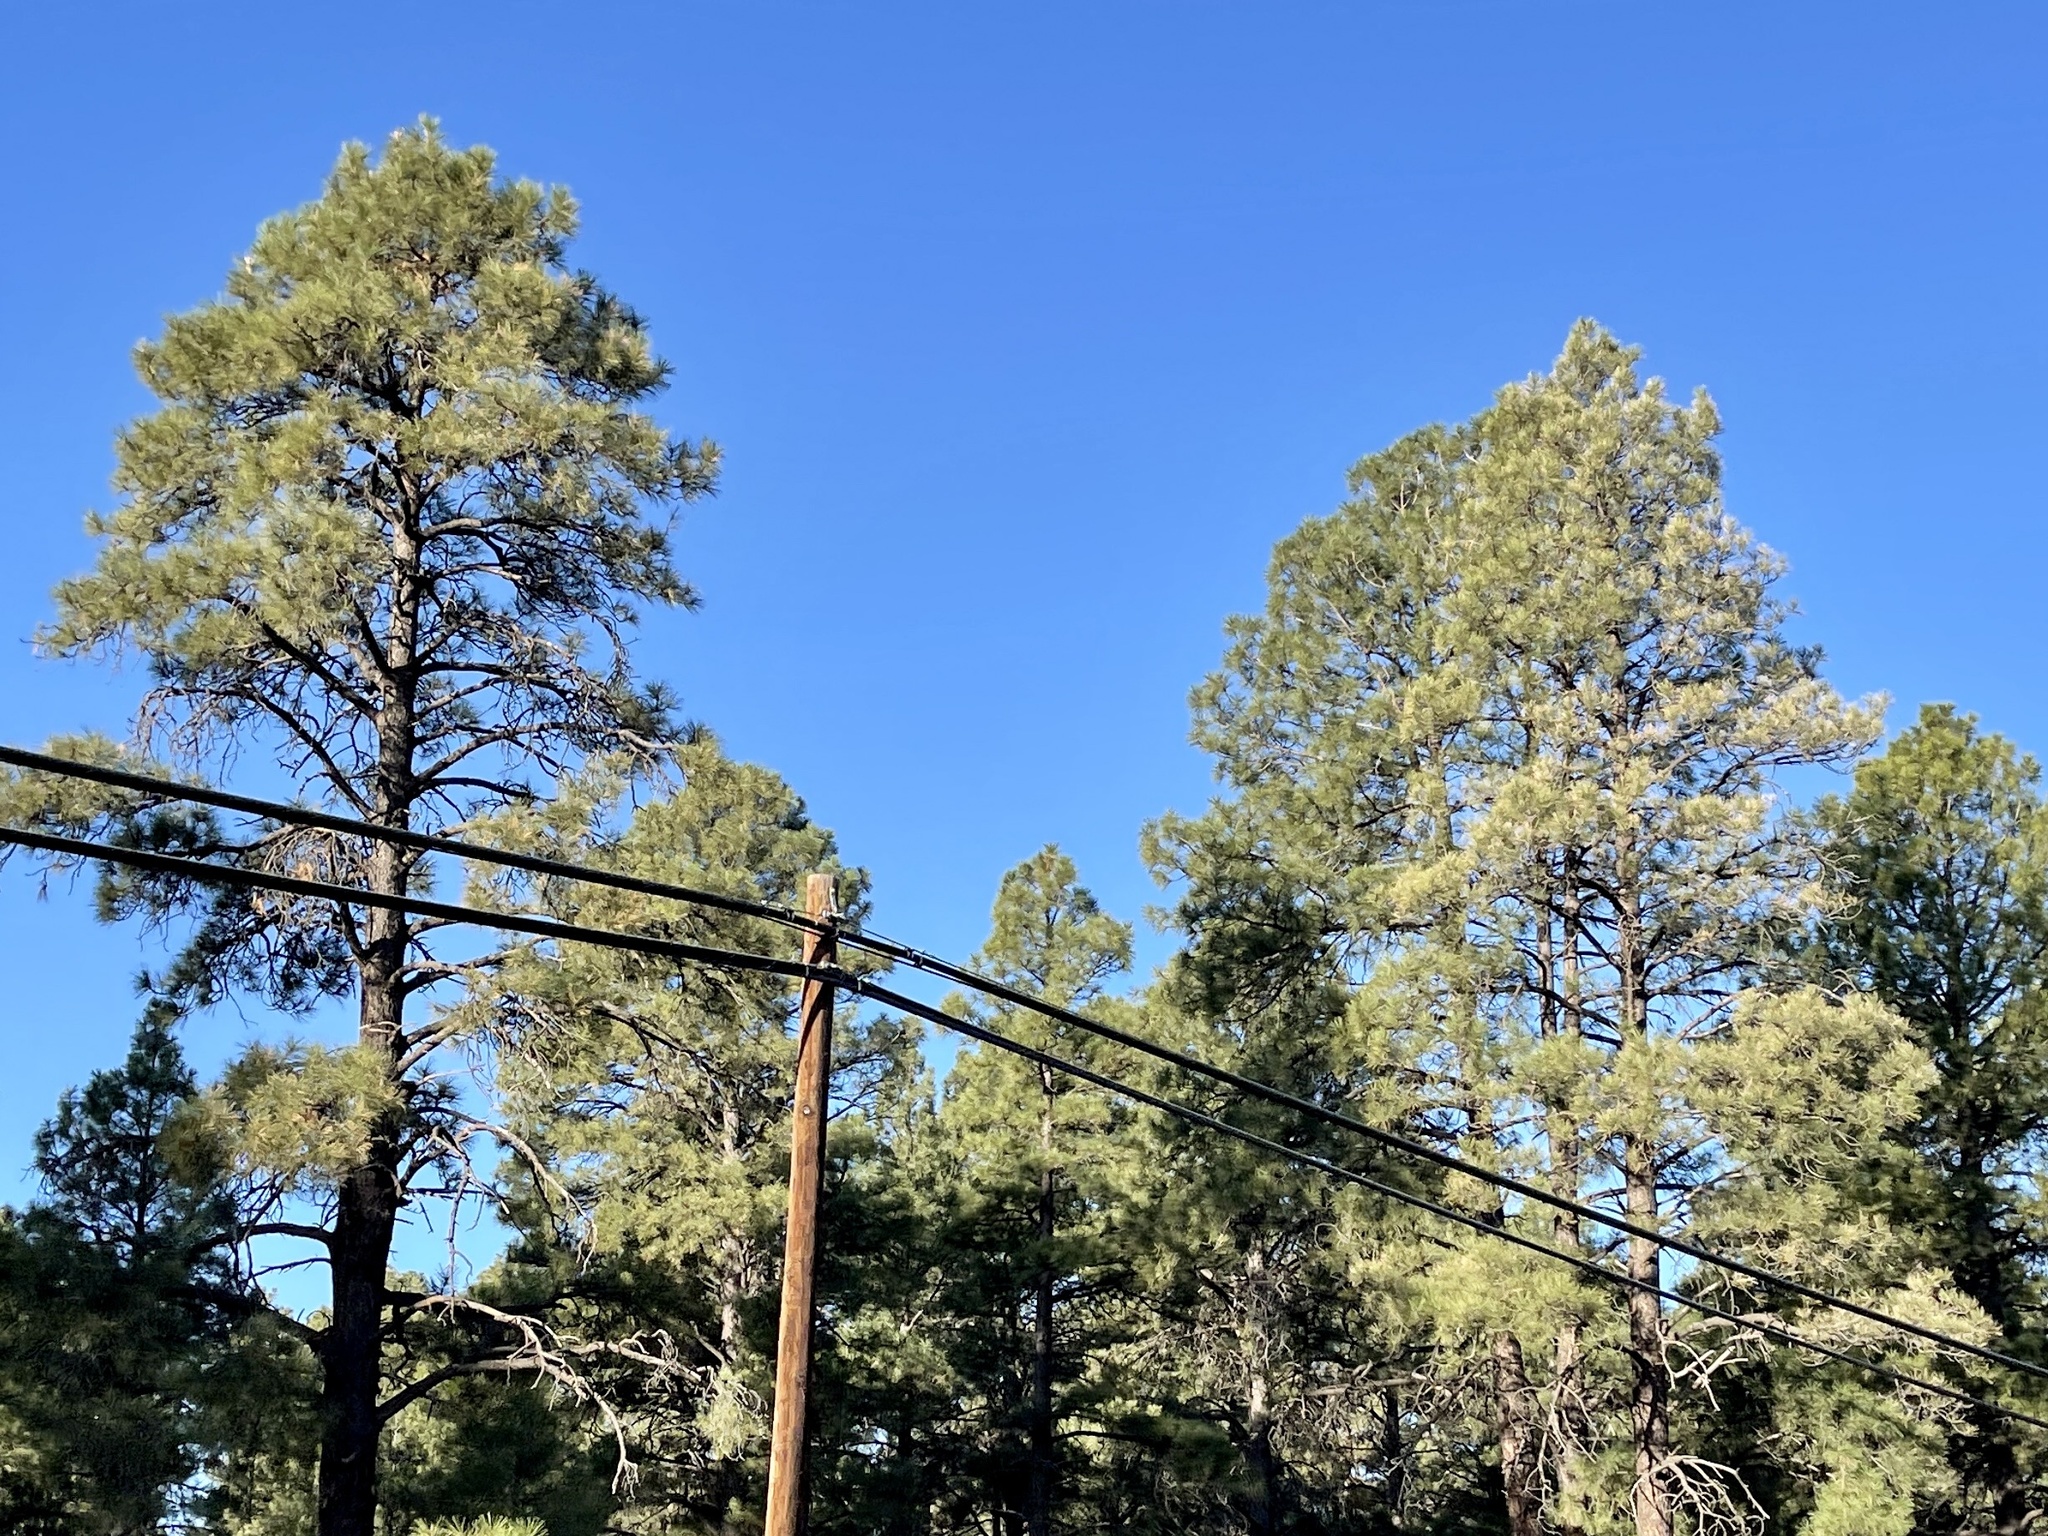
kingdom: Plantae
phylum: Tracheophyta
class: Pinopsida
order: Pinales
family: Pinaceae
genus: Pinus
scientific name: Pinus ponderosa
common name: Western yellow-pine
